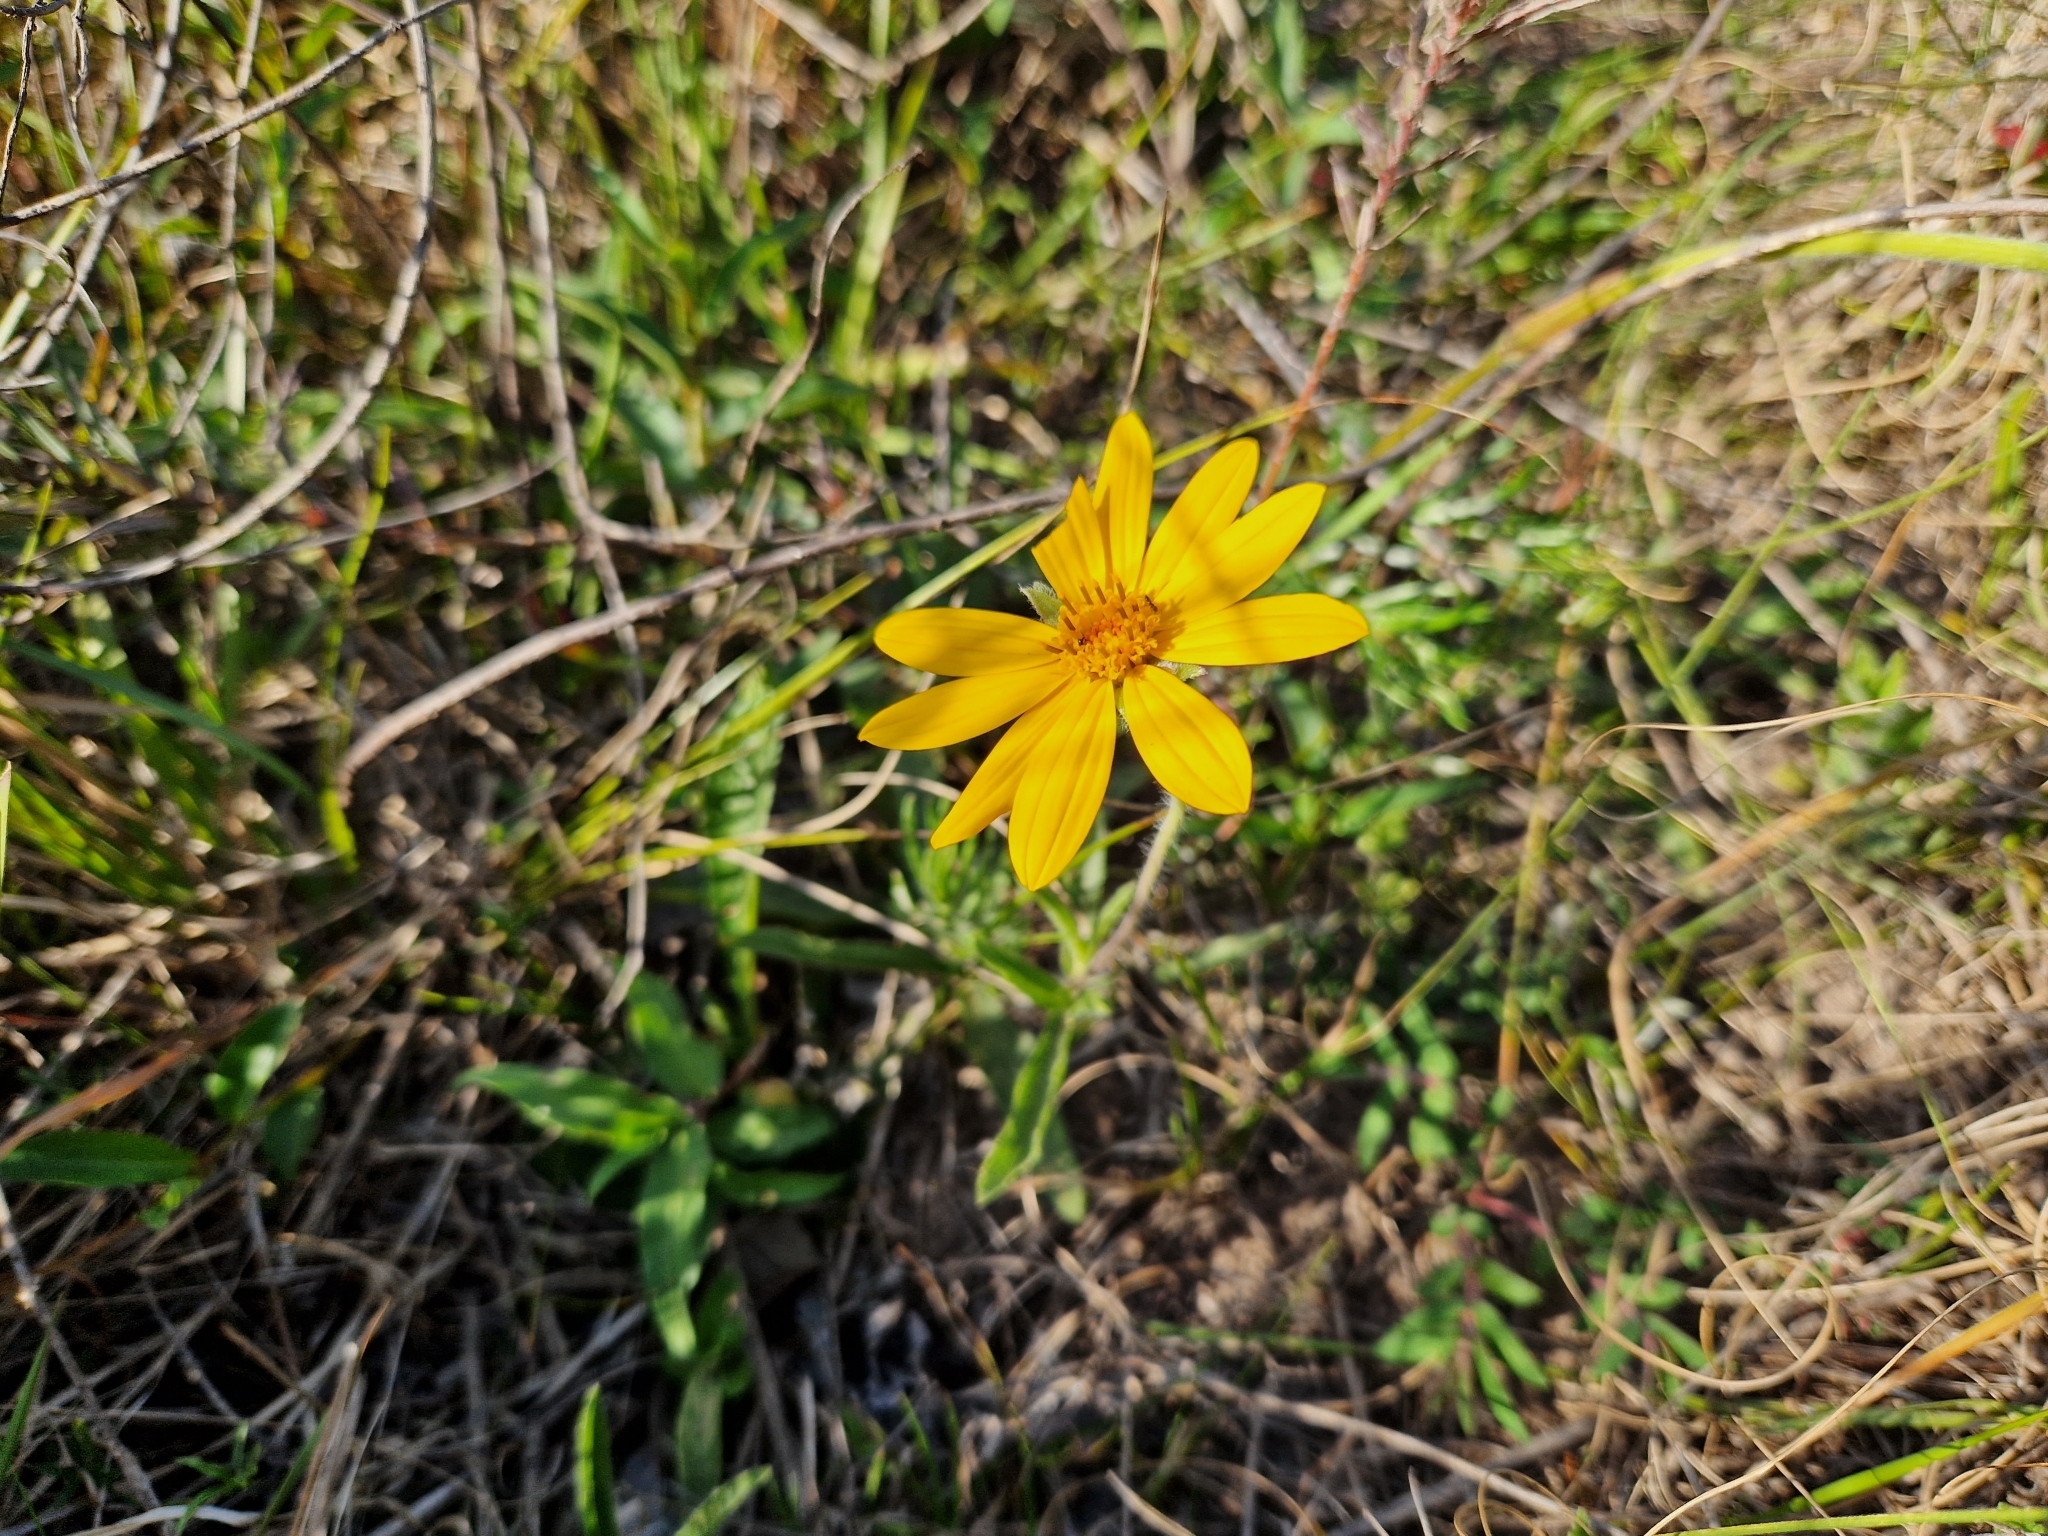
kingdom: Plantae
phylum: Tracheophyta
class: Magnoliopsida
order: Asterales
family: Asteraceae
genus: Wedelia
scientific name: Wedelia montevidensis
